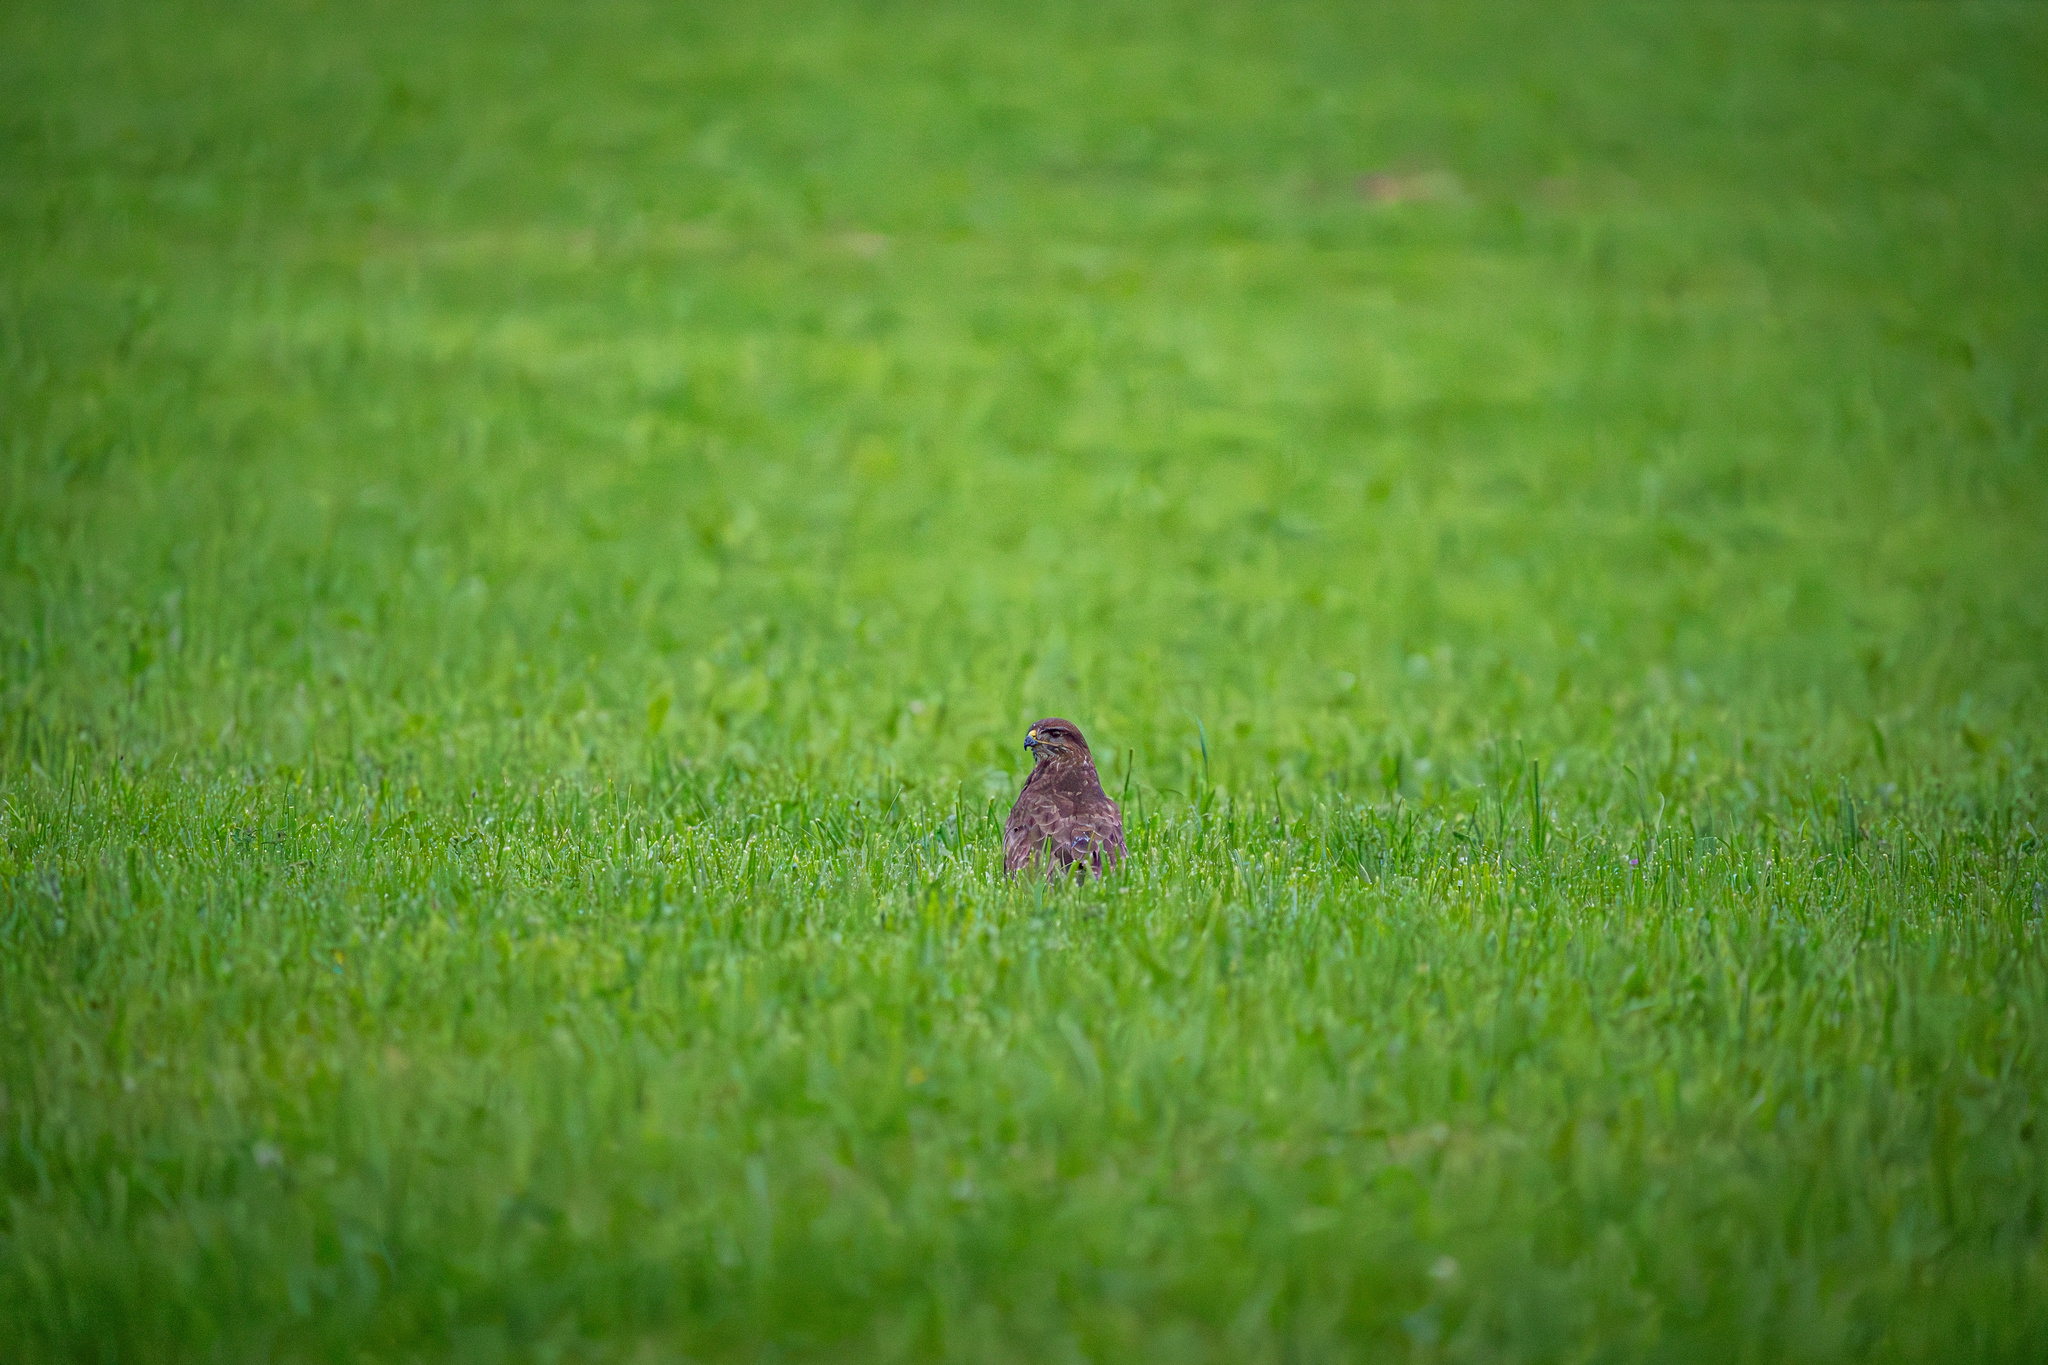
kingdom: Animalia
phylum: Chordata
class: Aves
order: Accipitriformes
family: Accipitridae
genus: Buteo
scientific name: Buteo buteo
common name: Common buzzard
